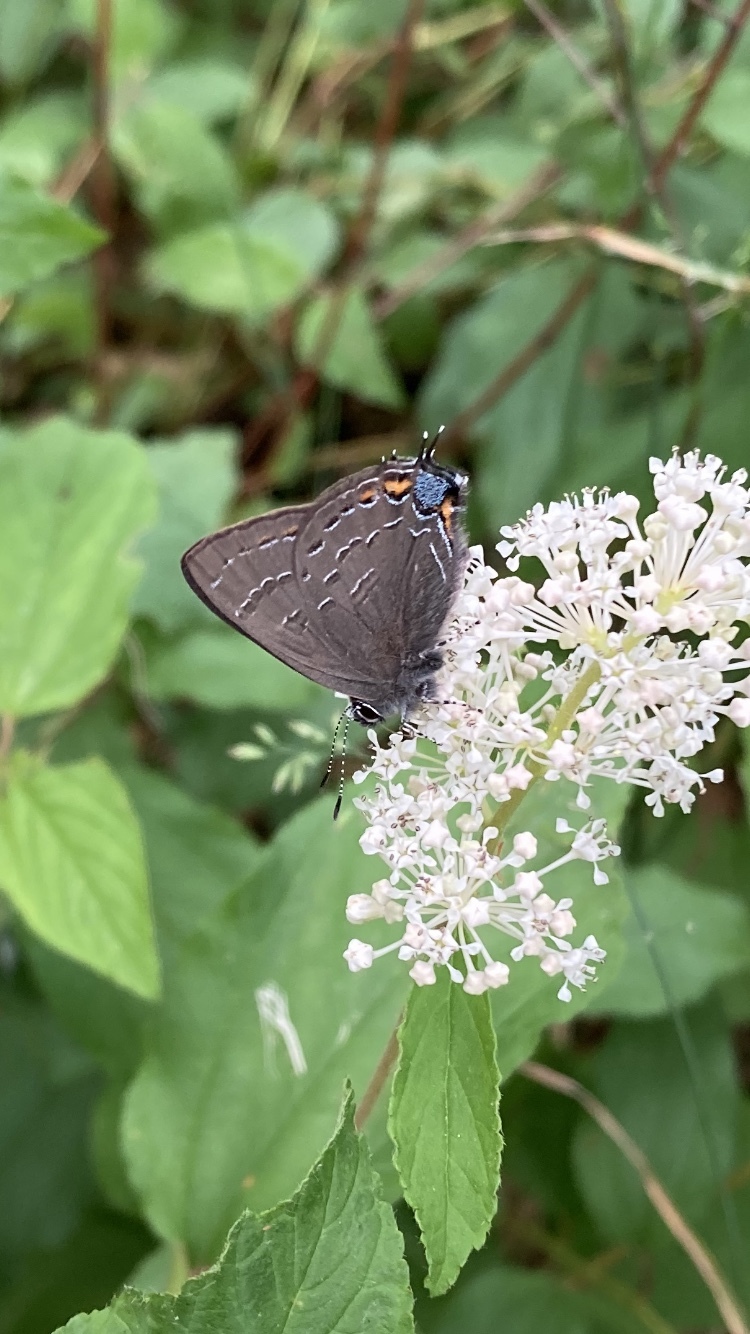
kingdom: Animalia
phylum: Arthropoda
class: Insecta
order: Lepidoptera
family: Lycaenidae
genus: Satyrium
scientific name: Satyrium calanus
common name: Banded hairstreak
